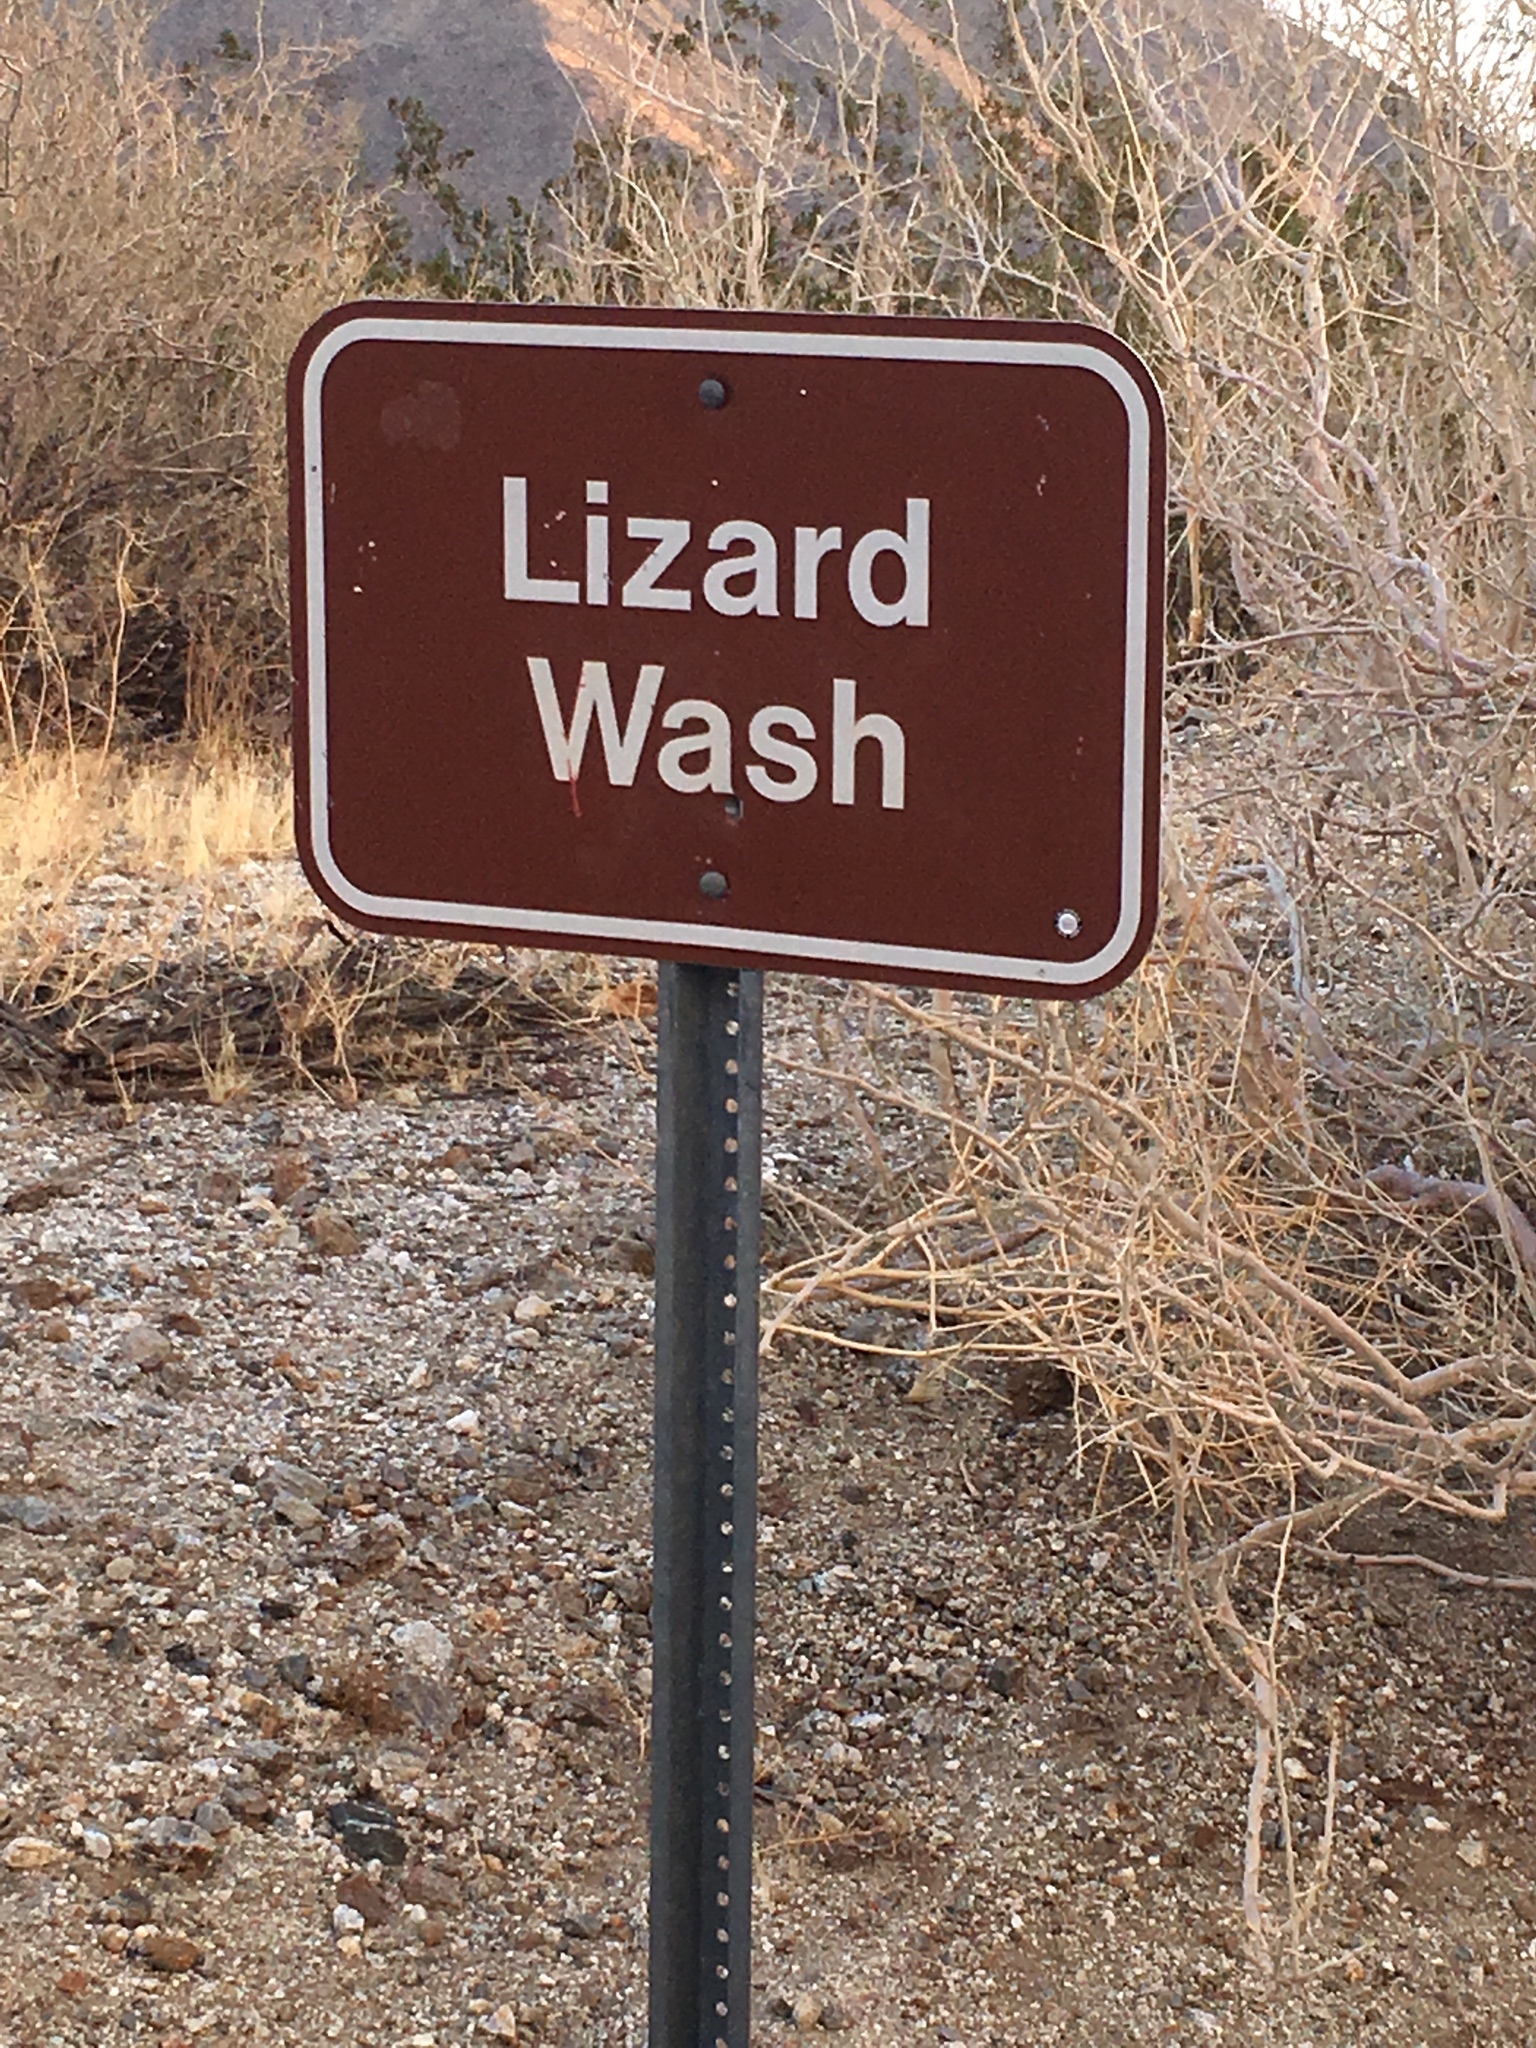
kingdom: Plantae
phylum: Tracheophyta
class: Magnoliopsida
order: Lamiales
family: Lamiaceae
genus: Salvia
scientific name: Salvia columbariae
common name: Chia
